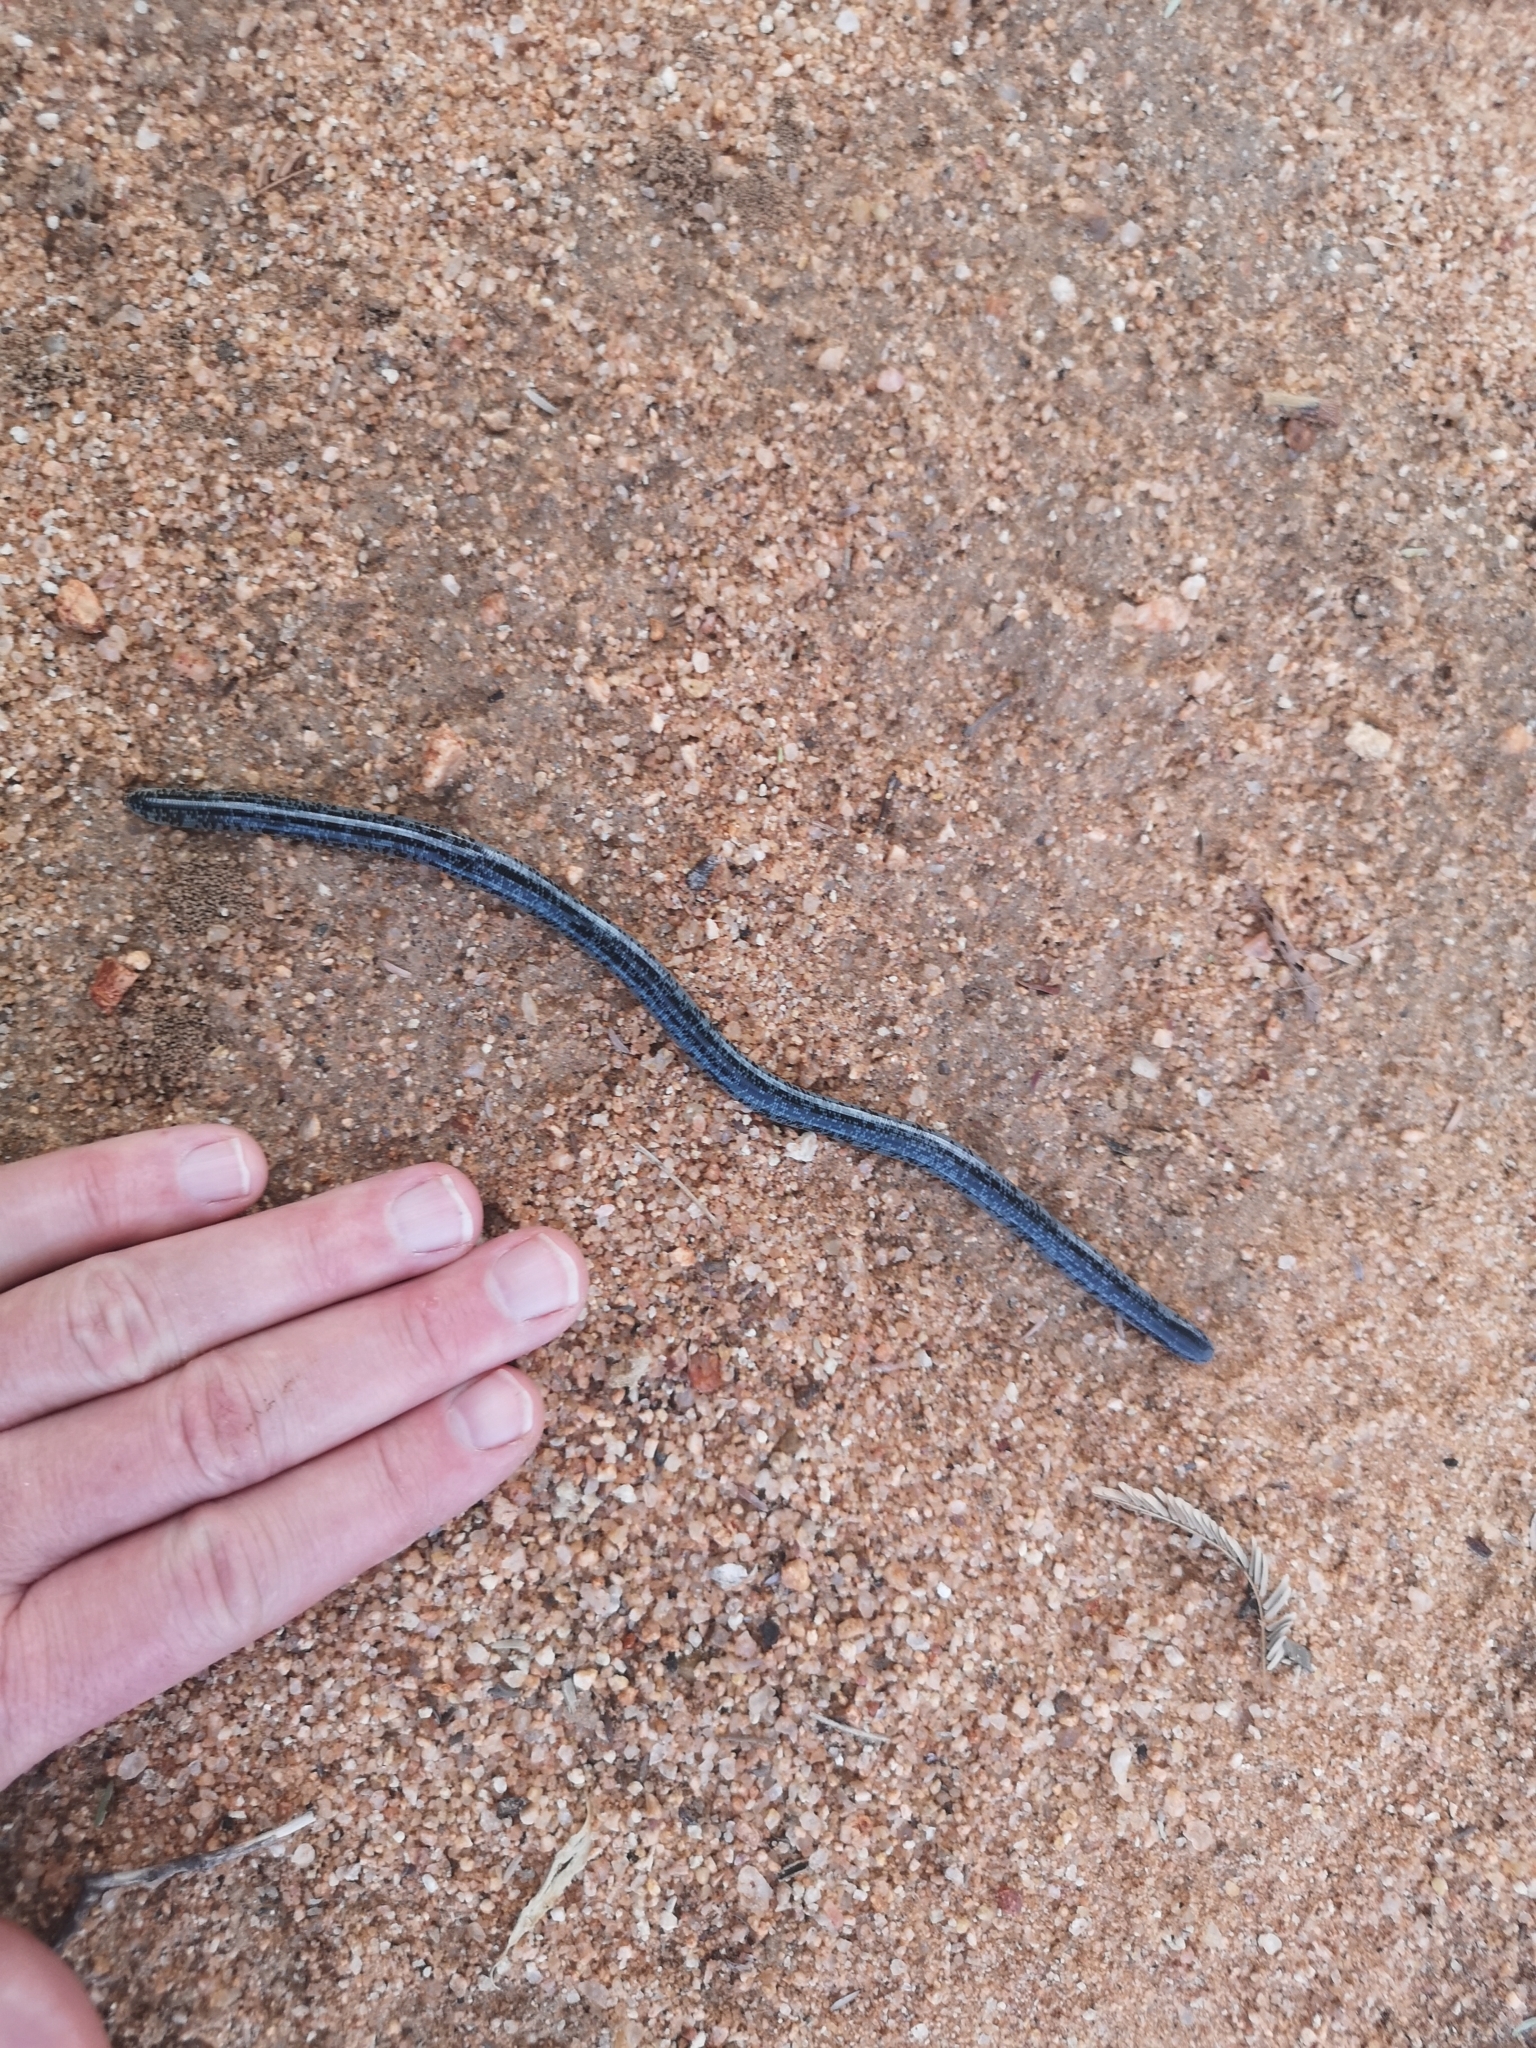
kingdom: Animalia
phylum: Chordata
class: Squamata
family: Typhlopidae
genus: Afrotyphlops
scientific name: Afrotyphlops schlegelii
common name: Schlegel's giant blind snake
